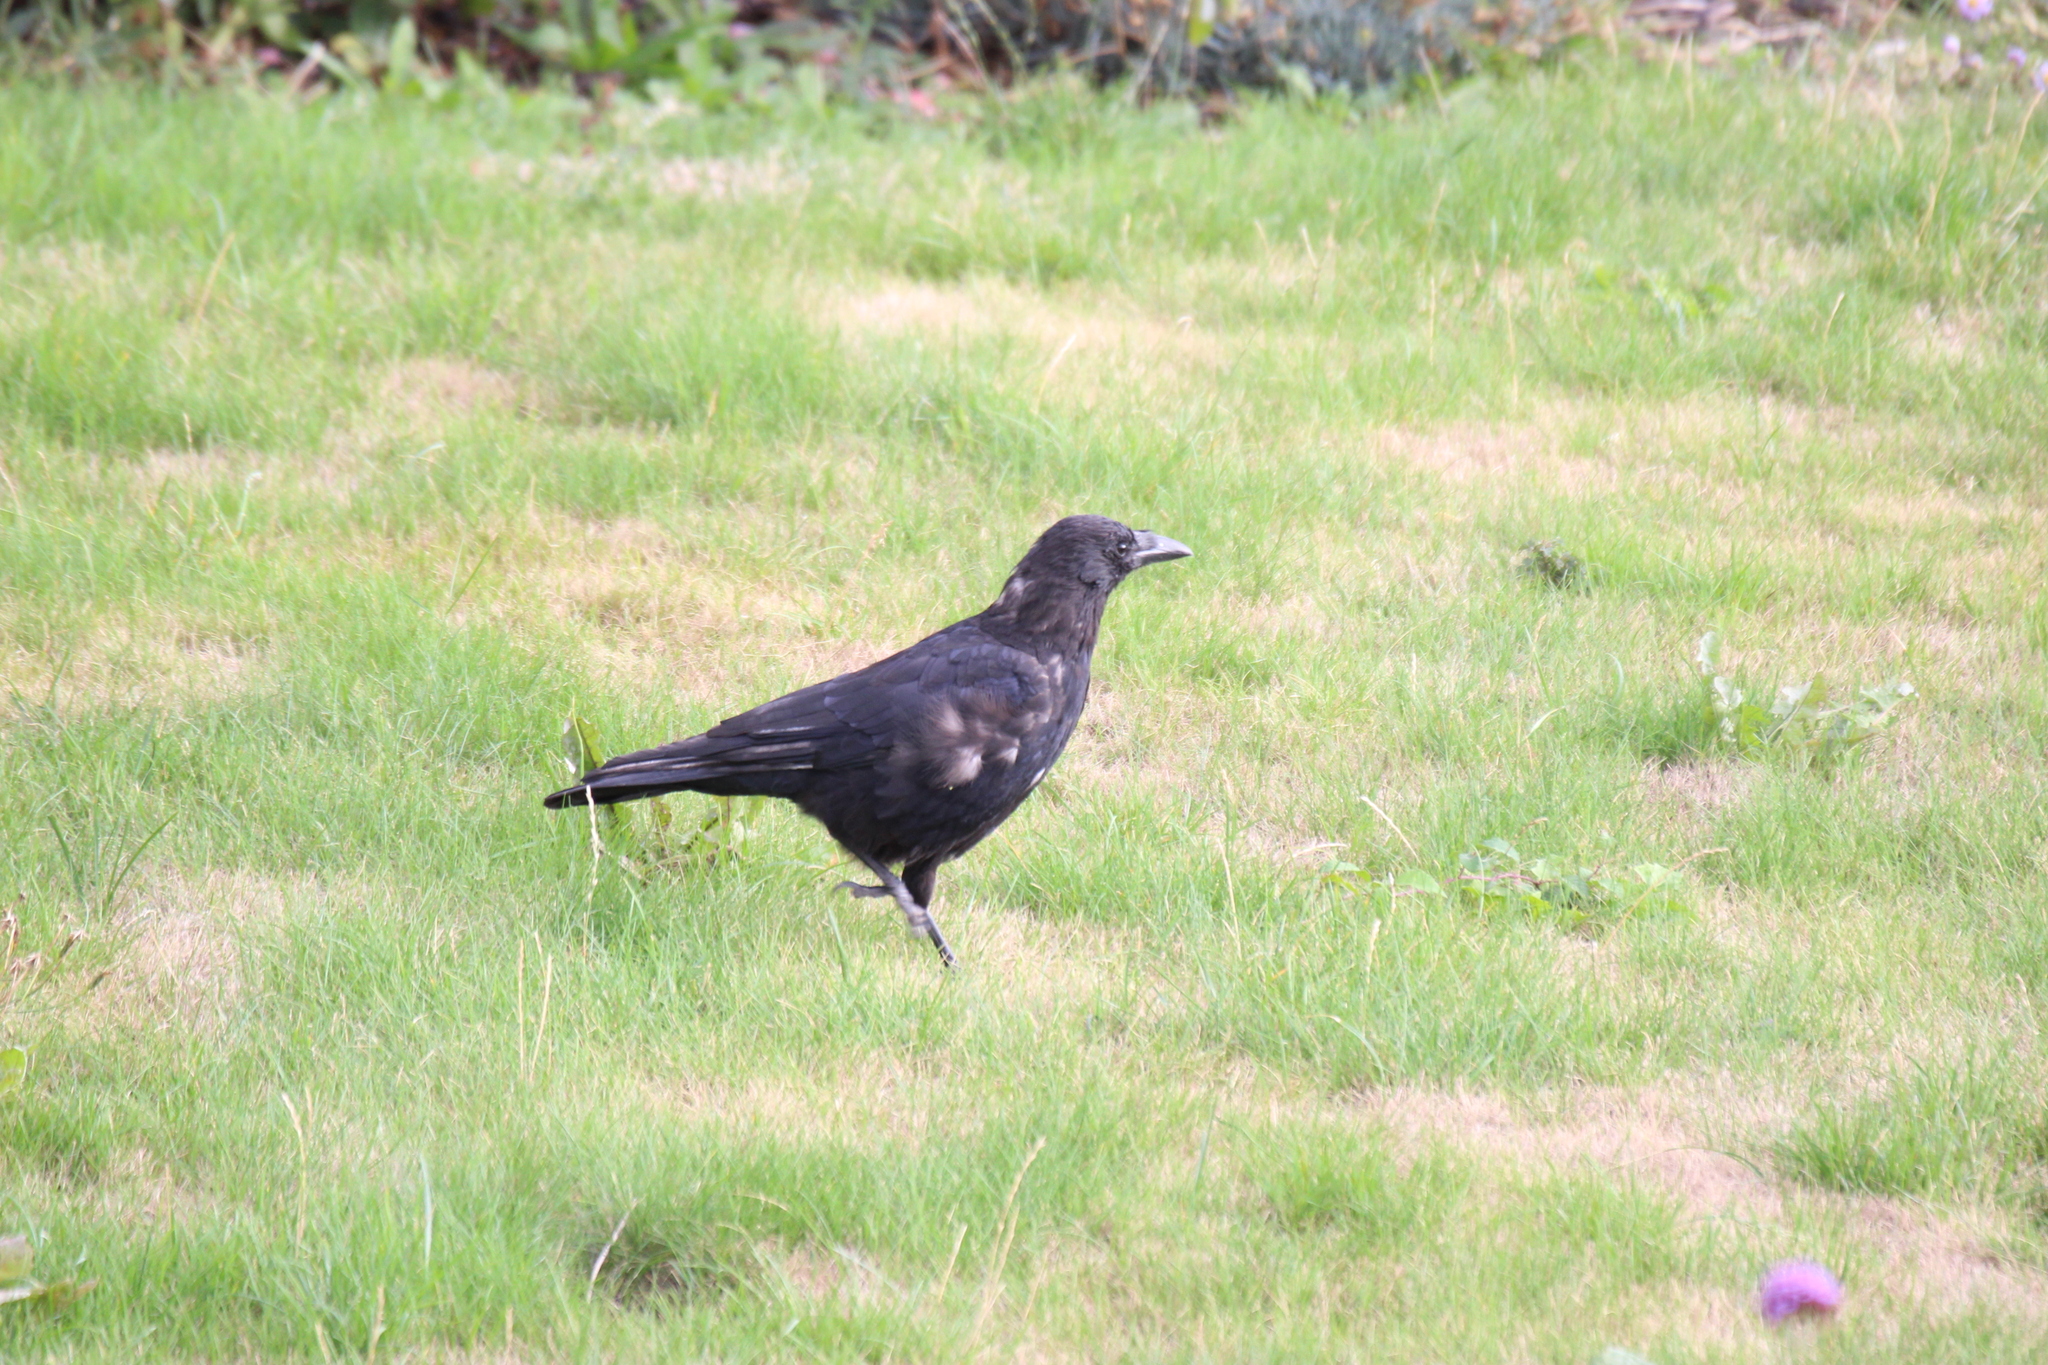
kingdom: Animalia
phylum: Chordata
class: Aves
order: Passeriformes
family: Corvidae
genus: Corvus
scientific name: Corvus corone
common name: Carrion crow
